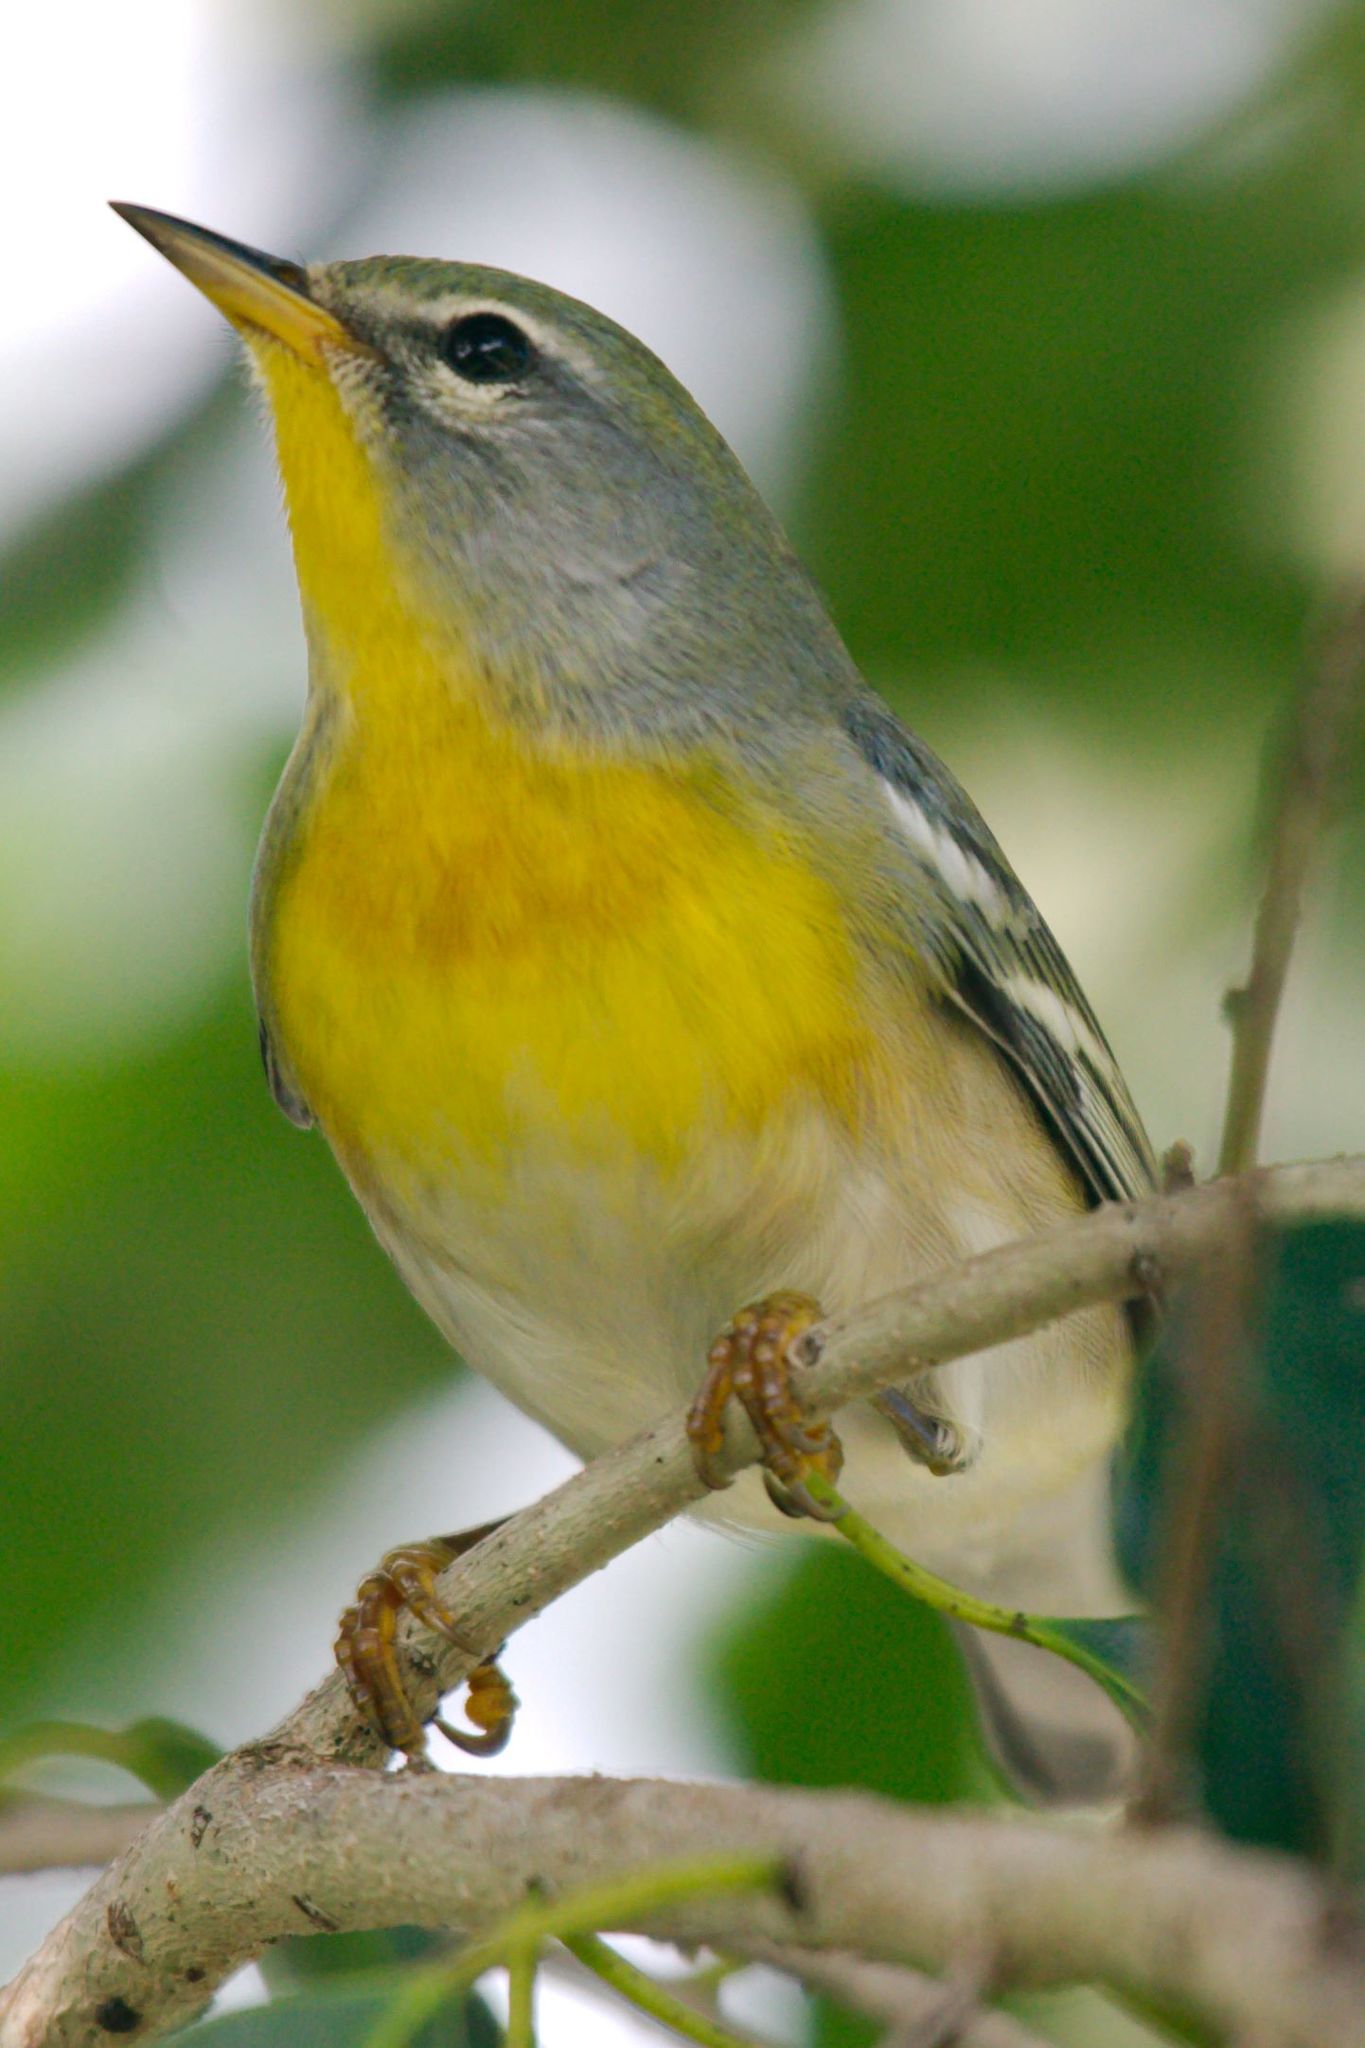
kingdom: Animalia
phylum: Chordata
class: Aves
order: Passeriformes
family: Parulidae
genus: Setophaga
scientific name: Setophaga americana
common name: Northern parula
